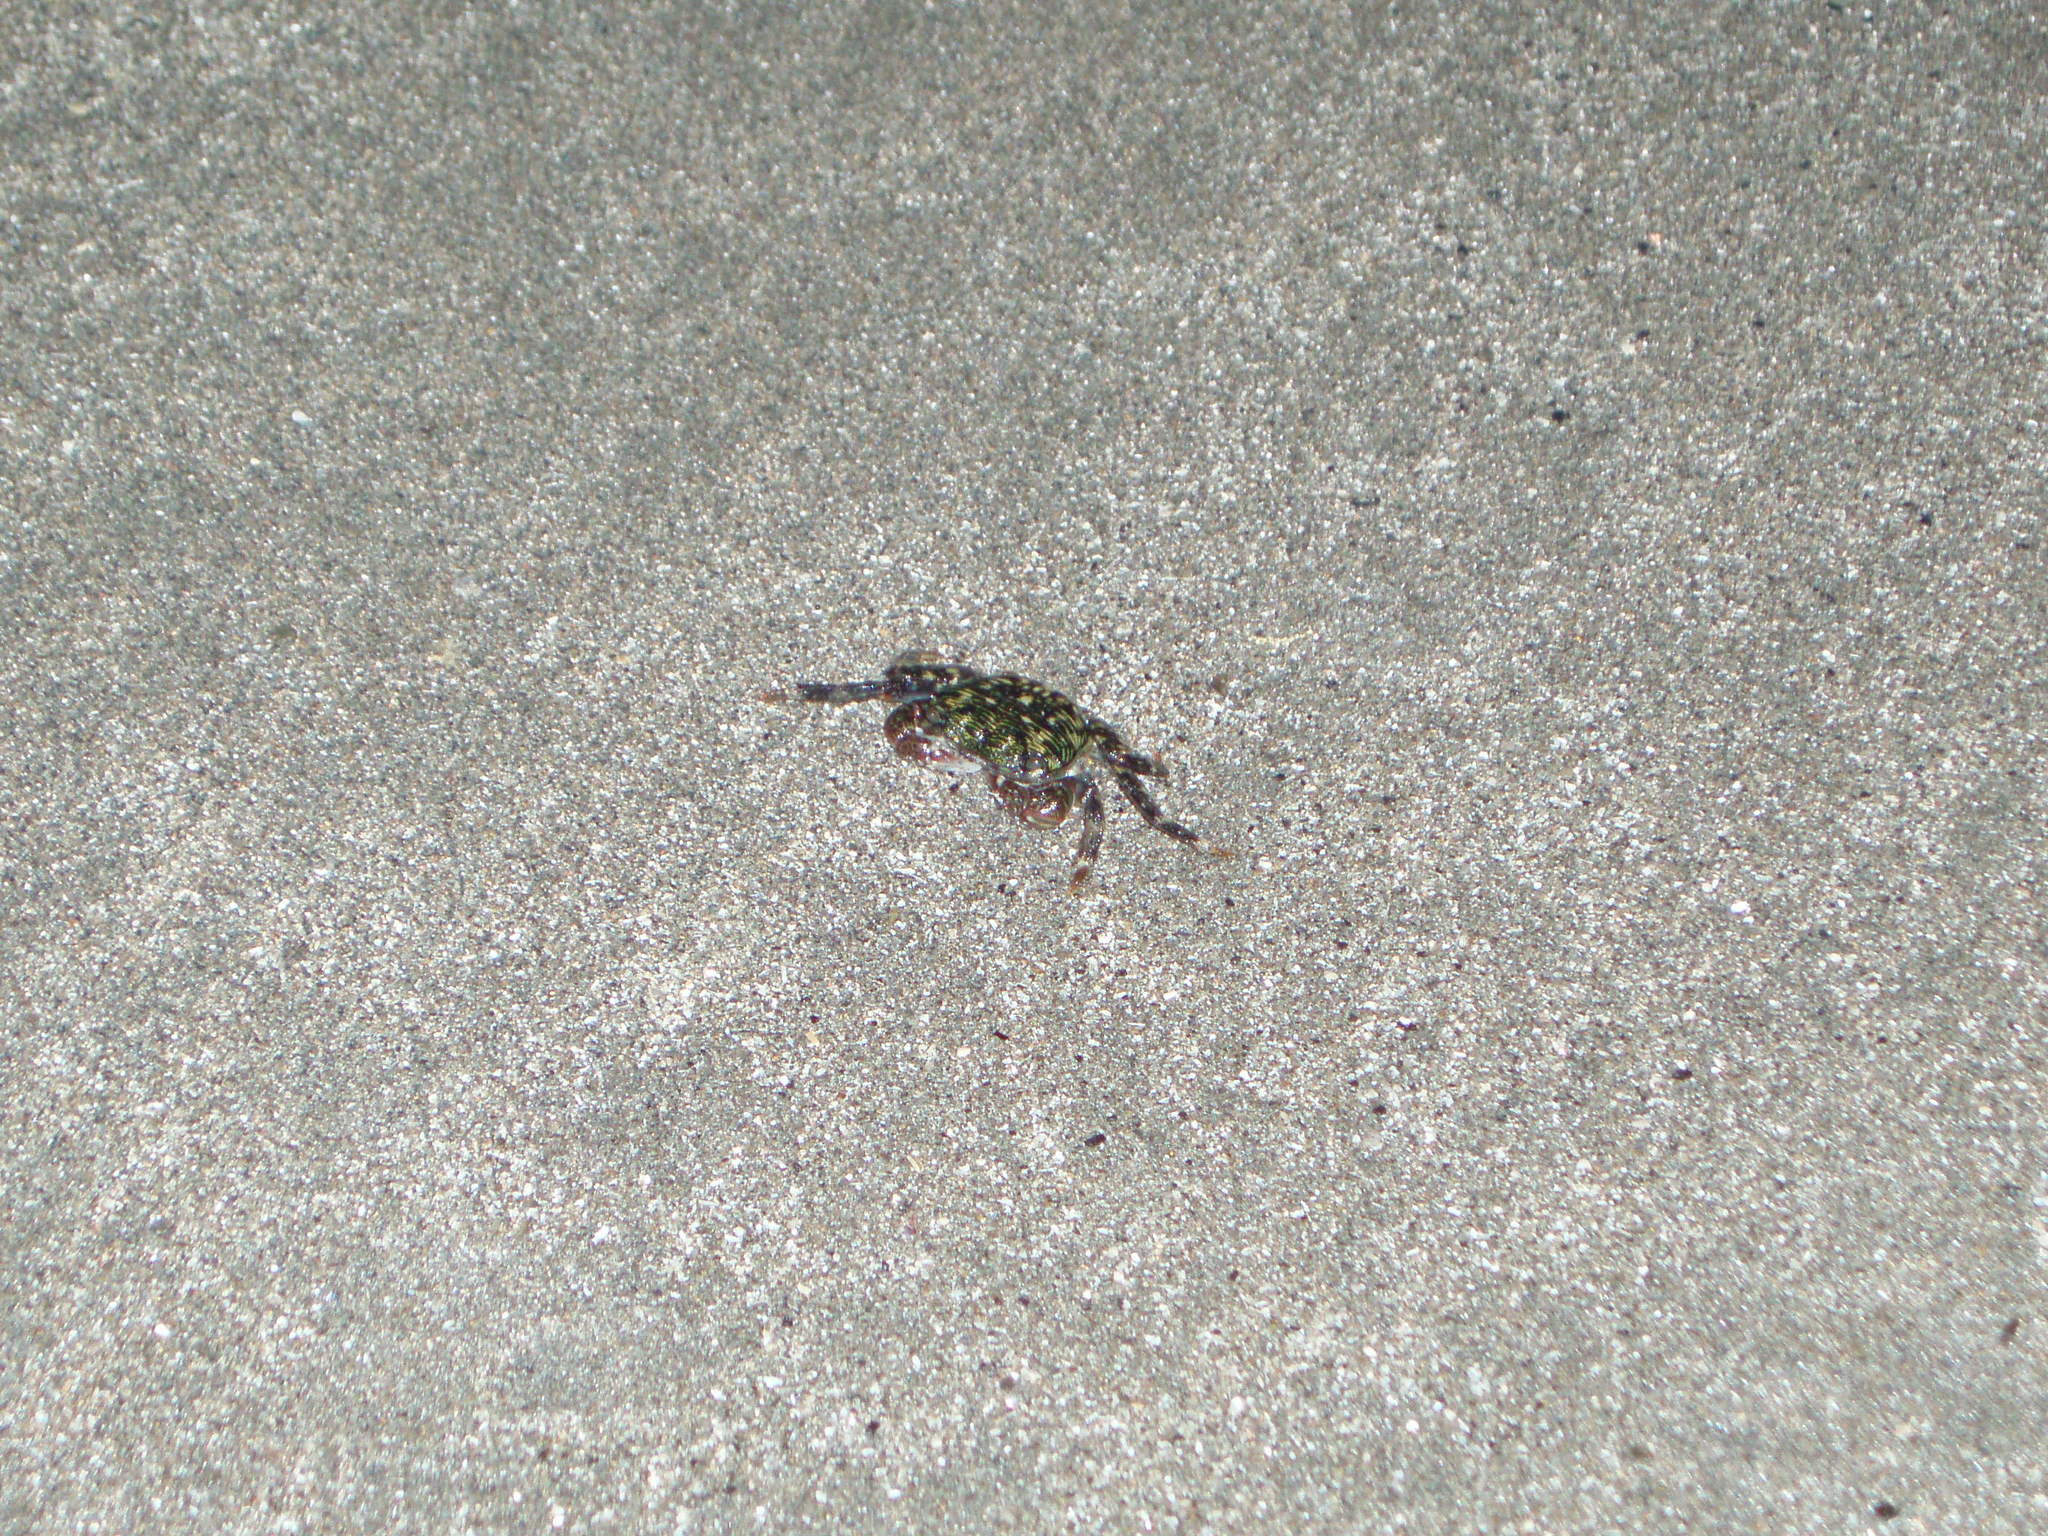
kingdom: Animalia
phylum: Arthropoda
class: Malacostraca
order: Decapoda
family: Grapsidae
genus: Pachygrapsus
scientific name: Pachygrapsus crassipes
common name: Striped shore crab
